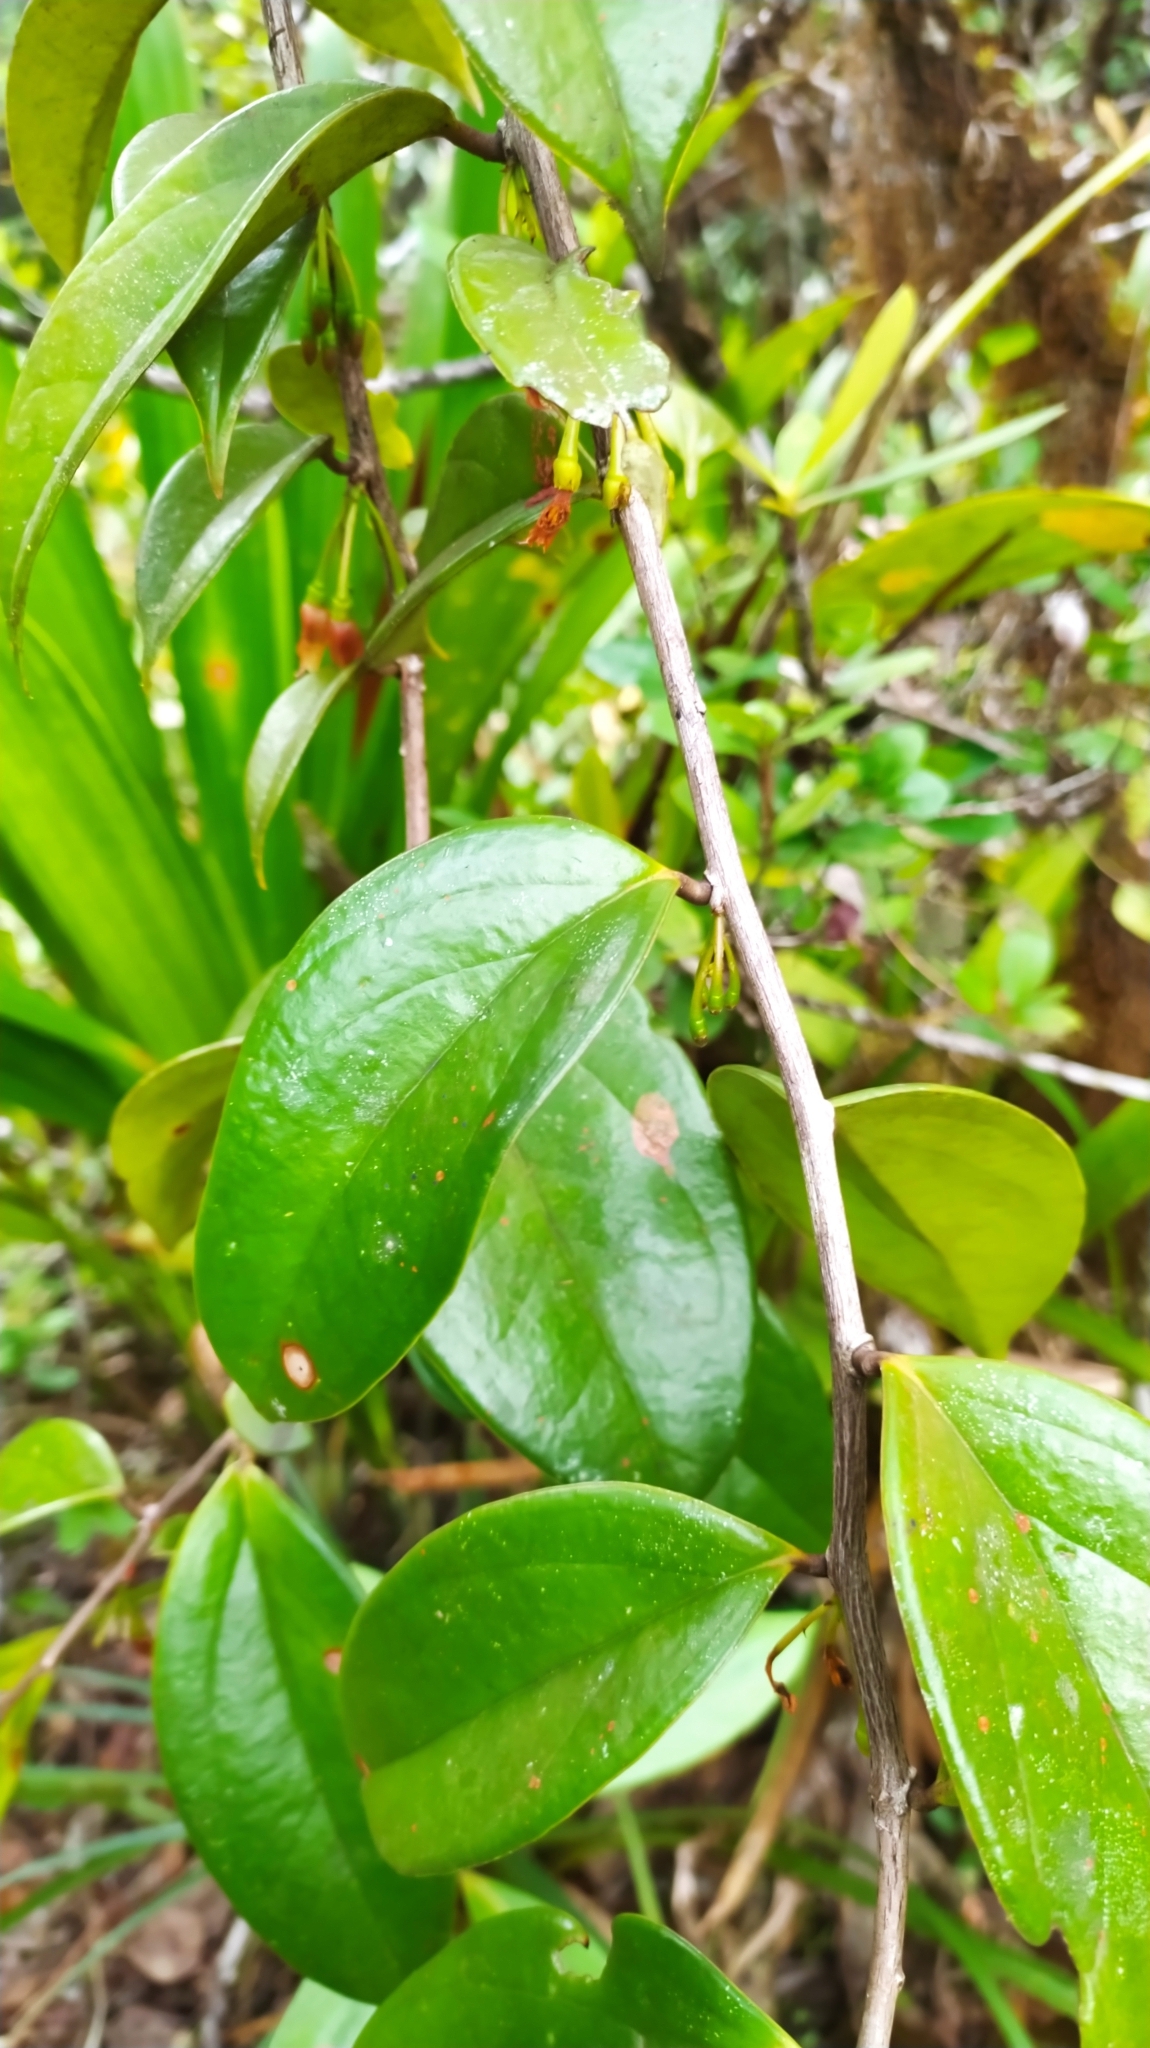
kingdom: Plantae
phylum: Tracheophyta
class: Magnoliopsida
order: Ericales
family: Ericaceae
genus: Satyria
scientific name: Satyria cerander
